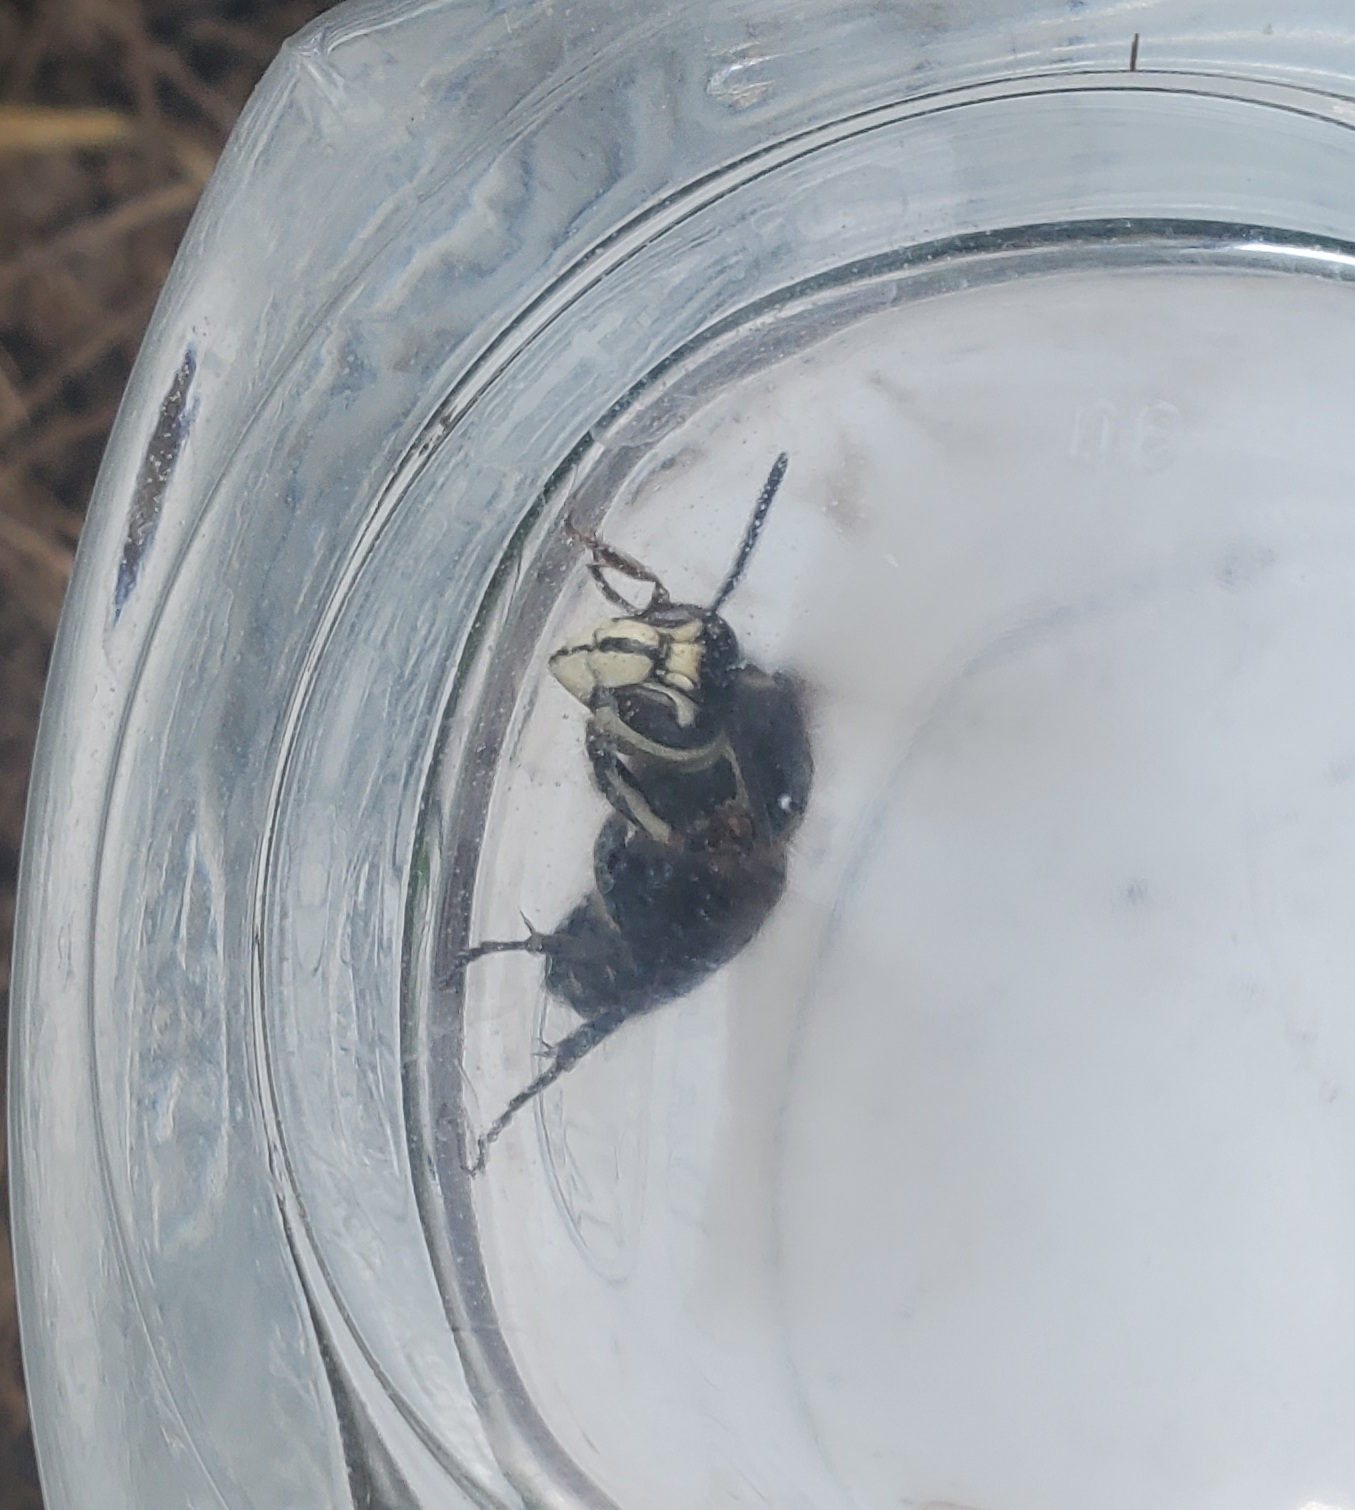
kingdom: Animalia
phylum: Arthropoda
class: Insecta
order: Hymenoptera
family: Vespidae
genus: Dolichovespula
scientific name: Dolichovespula maculata
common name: Bald-faced hornet
